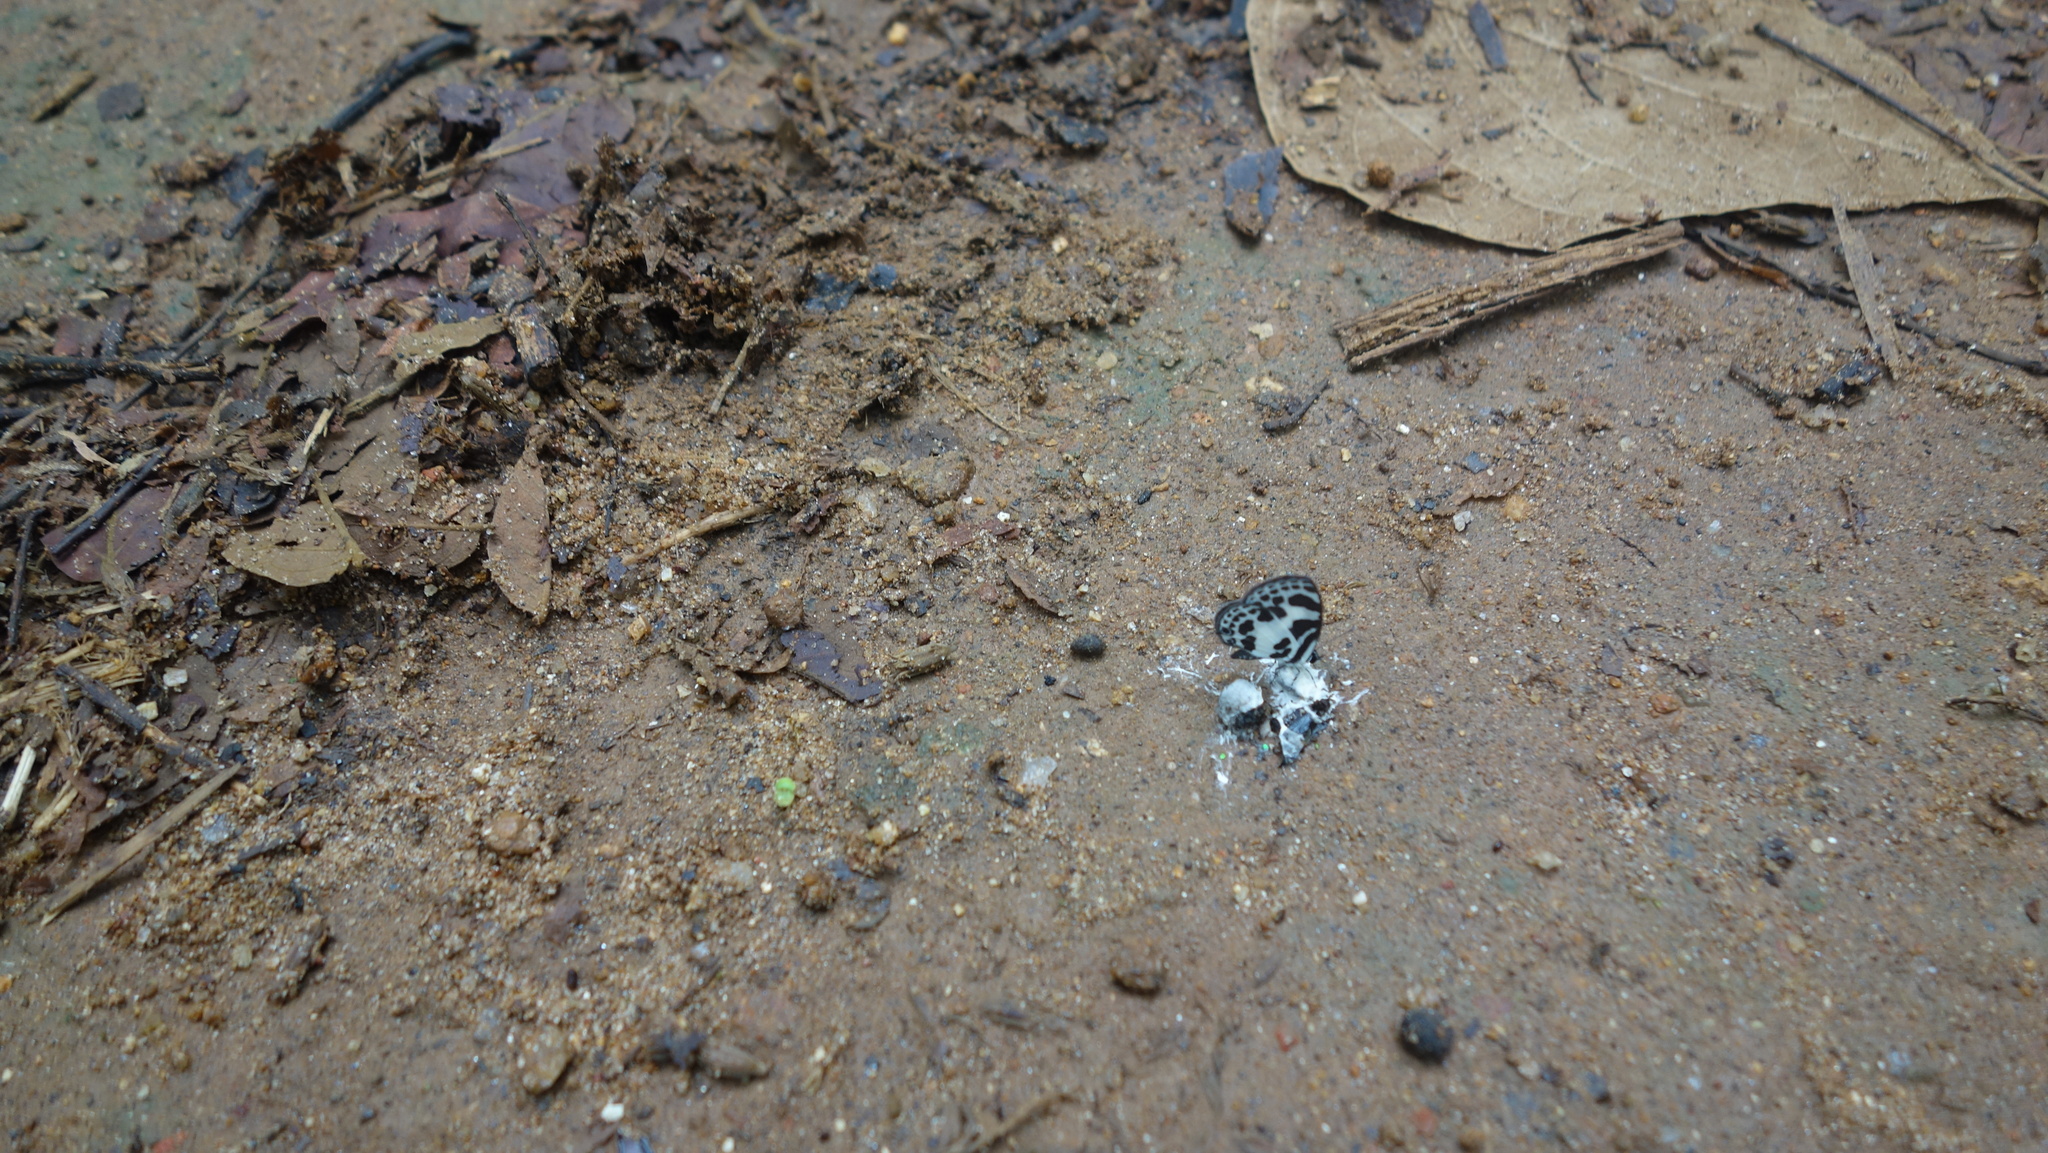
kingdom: Animalia
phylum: Arthropoda
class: Insecta
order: Lepidoptera
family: Lycaenidae
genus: Discolampa
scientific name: Discolampa ethion
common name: Banded blue pierrot
